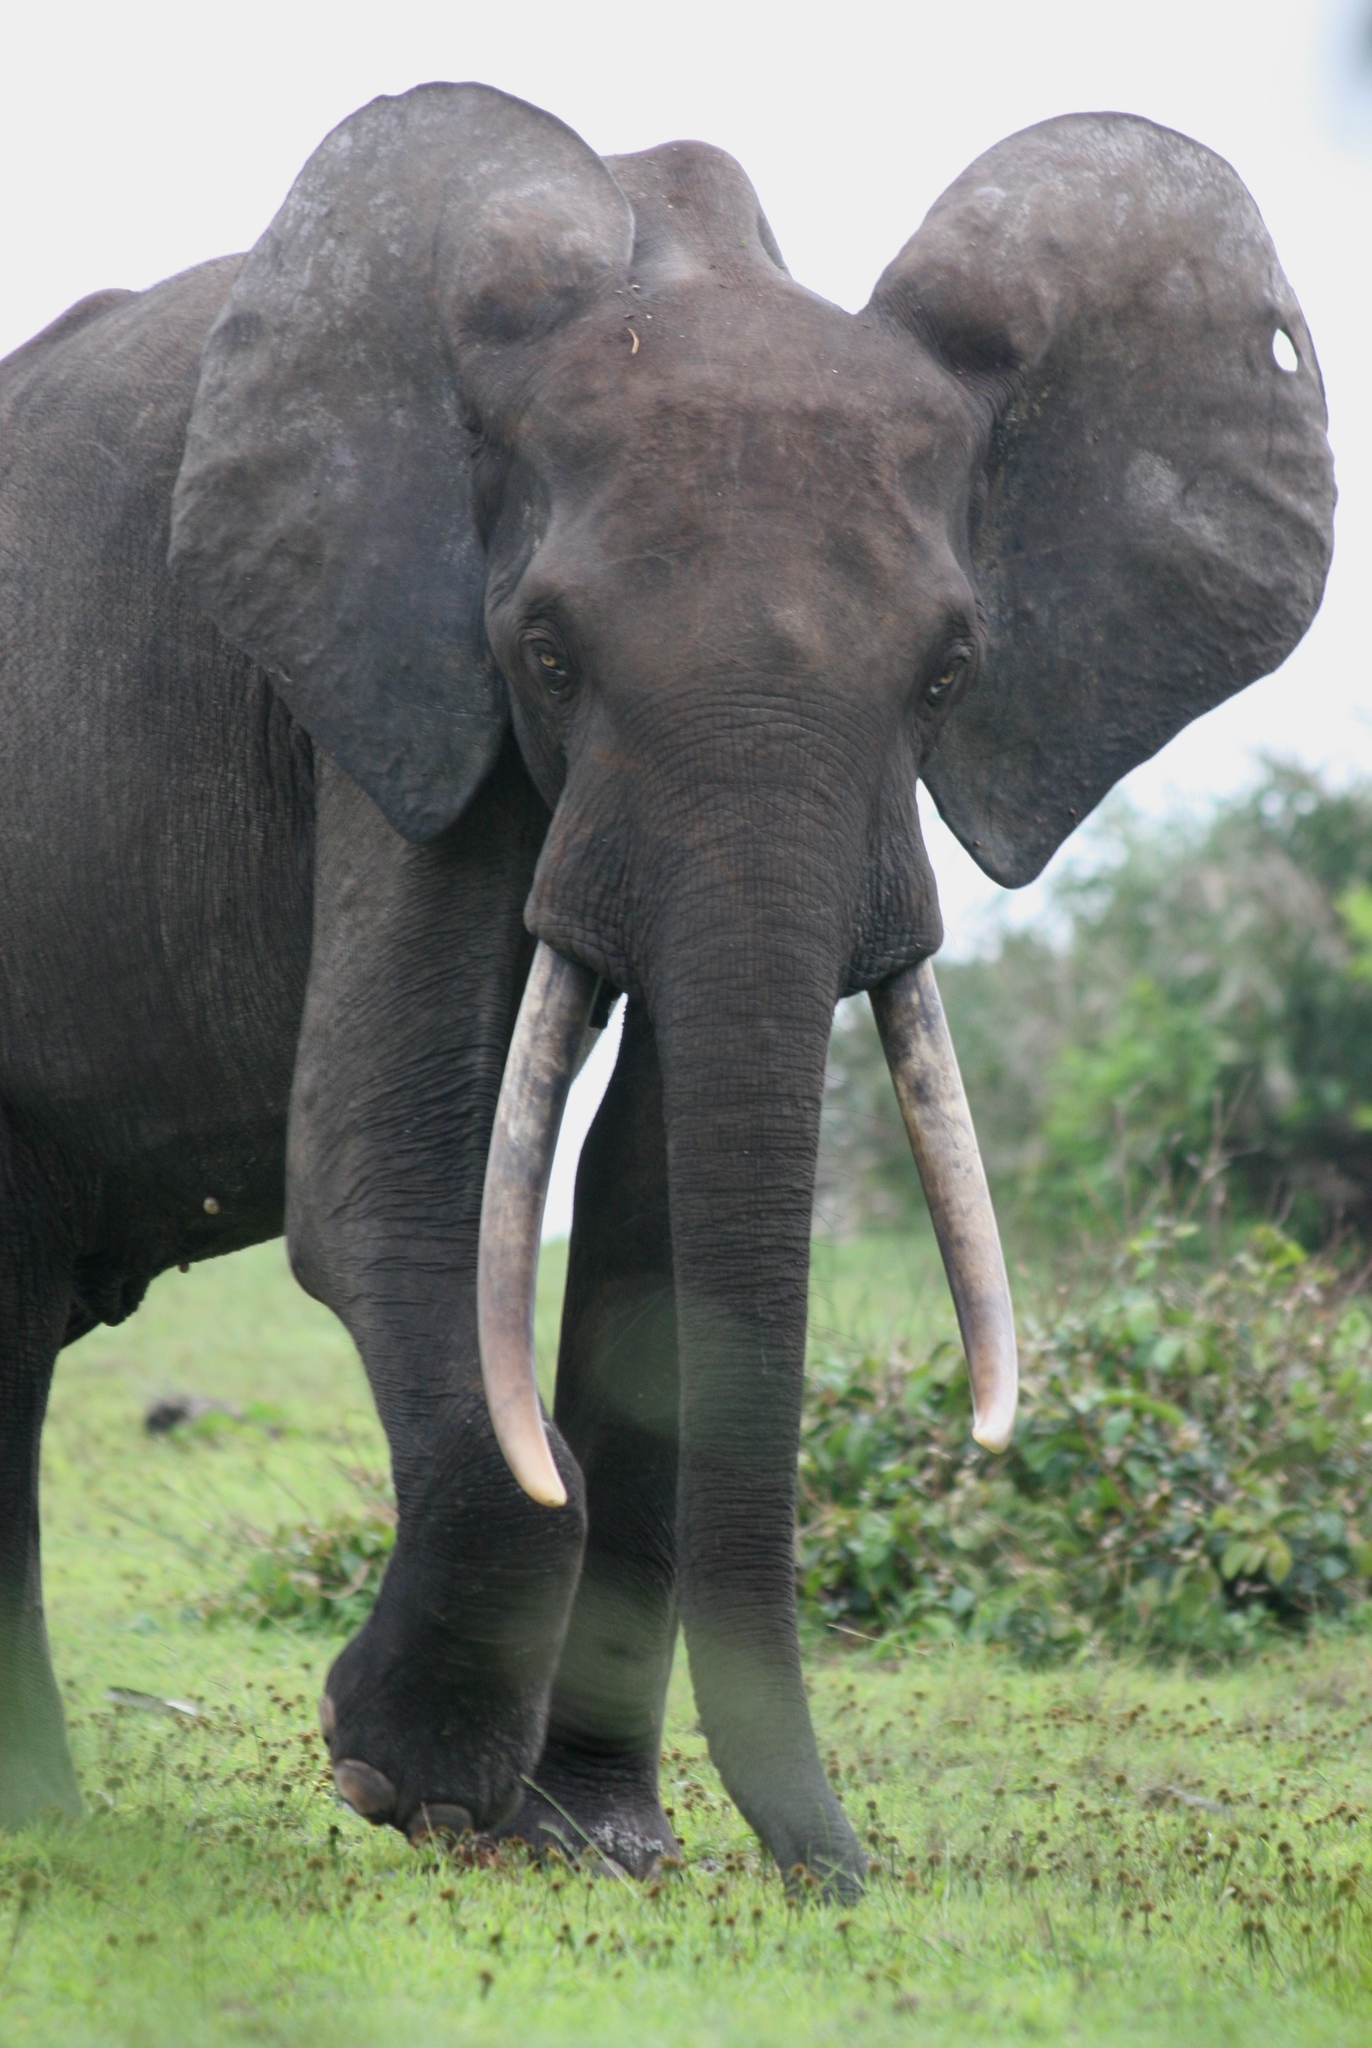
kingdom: Animalia
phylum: Chordata
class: Mammalia
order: Proboscidea
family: Elephantidae
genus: Loxodonta
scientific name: Loxodonta cyclotis
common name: African forest elephant
